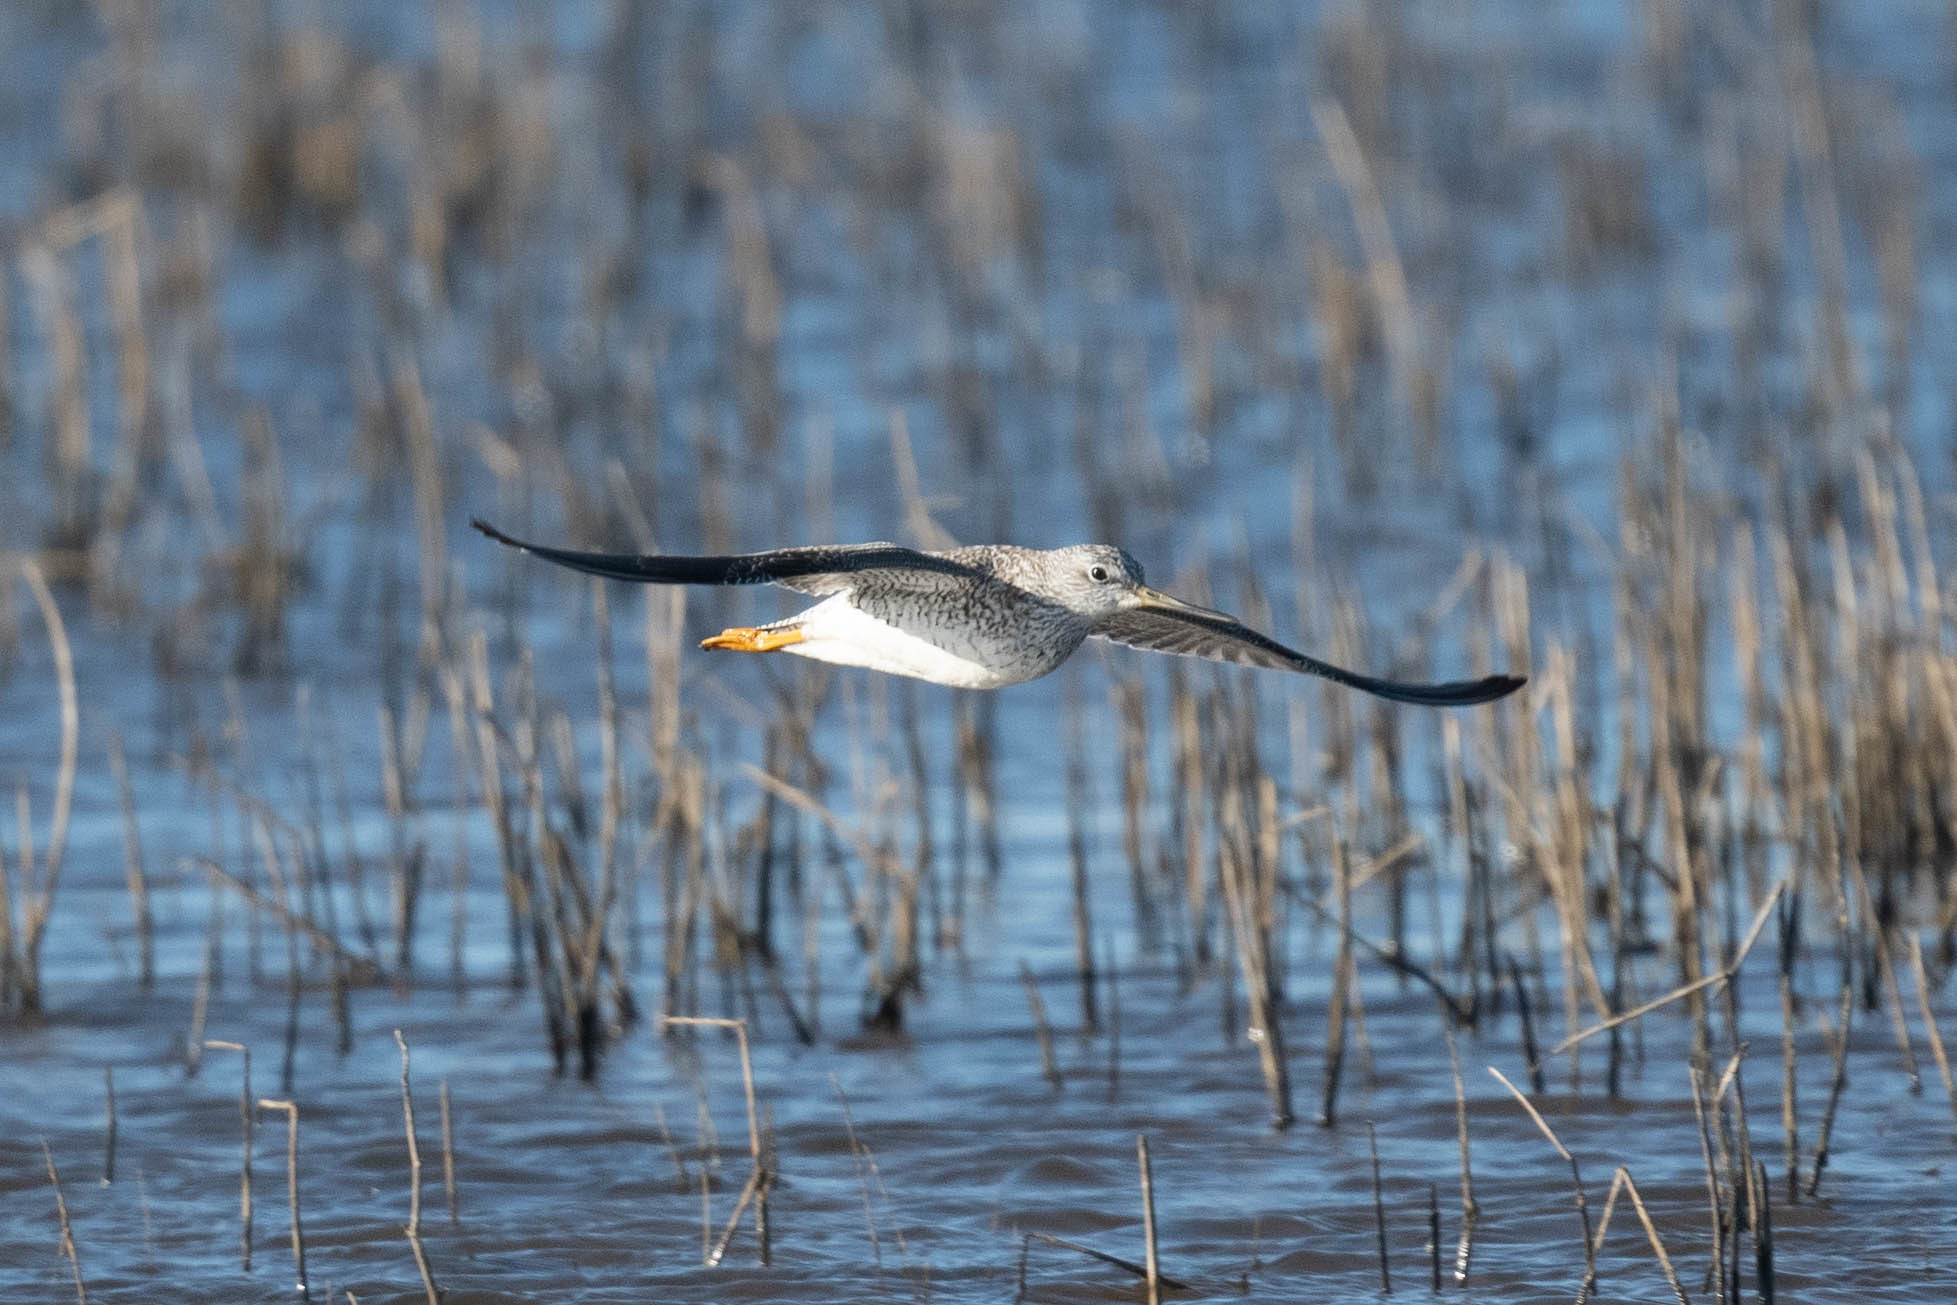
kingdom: Animalia
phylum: Chordata
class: Aves
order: Charadriiformes
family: Scolopacidae
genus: Tringa
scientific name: Tringa melanoleuca
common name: Greater yellowlegs
